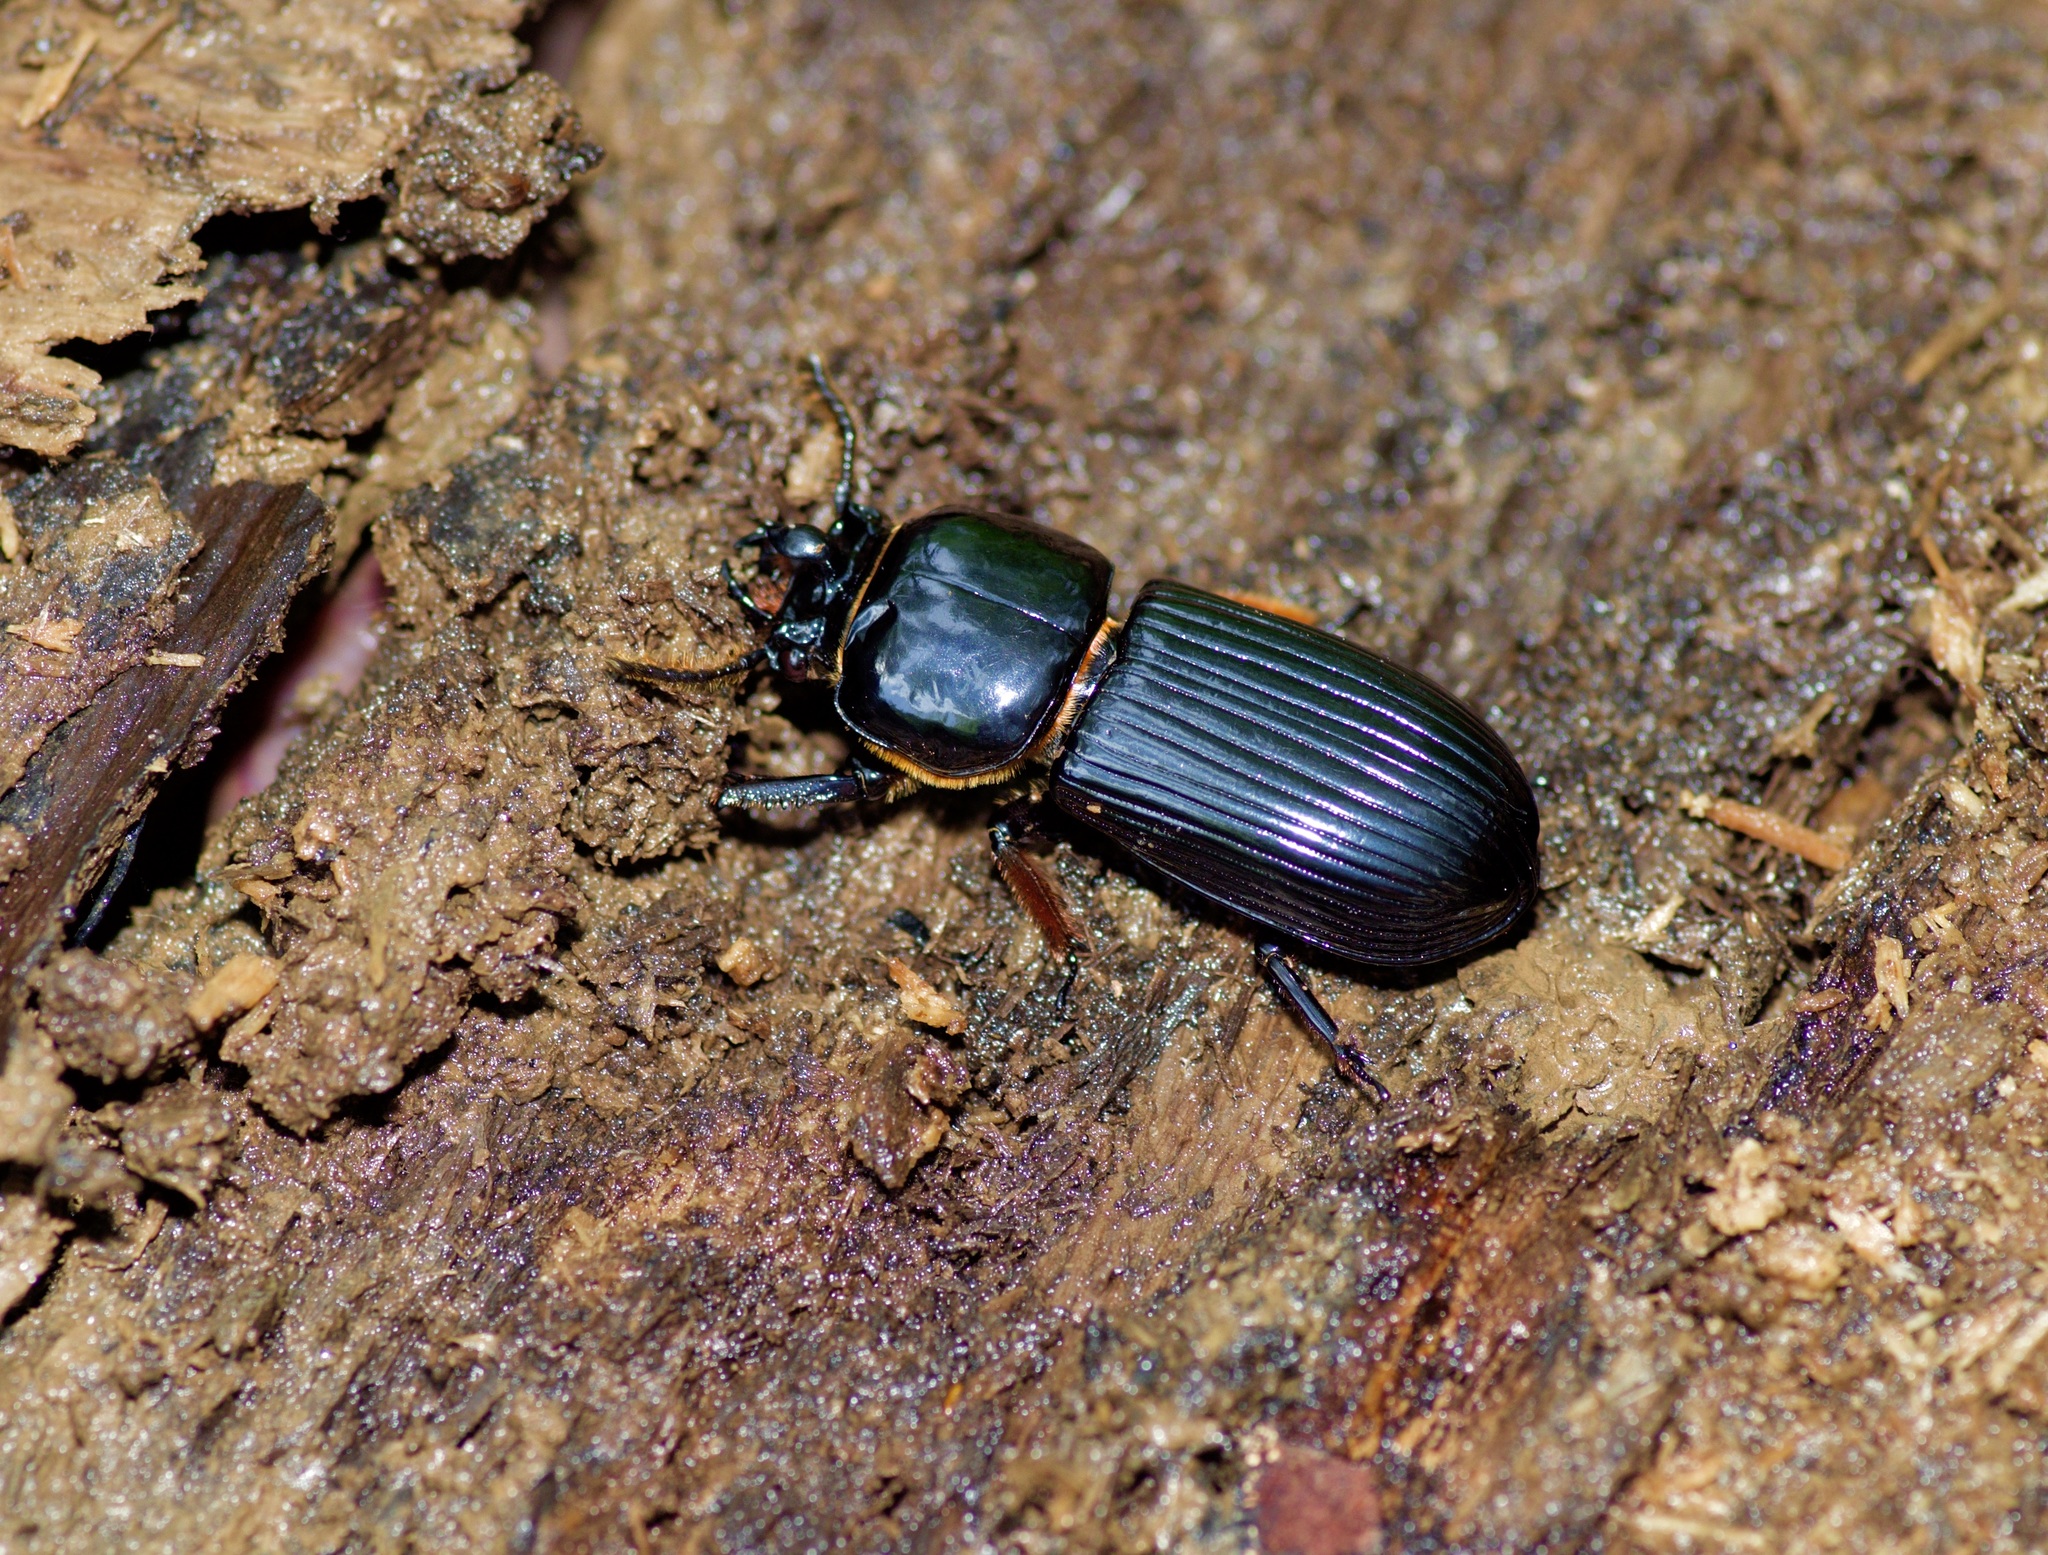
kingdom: Animalia
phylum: Arthropoda
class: Insecta
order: Coleoptera
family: Passalidae
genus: Odontotaenius
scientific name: Odontotaenius disjunctus
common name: Patent leather beetle
